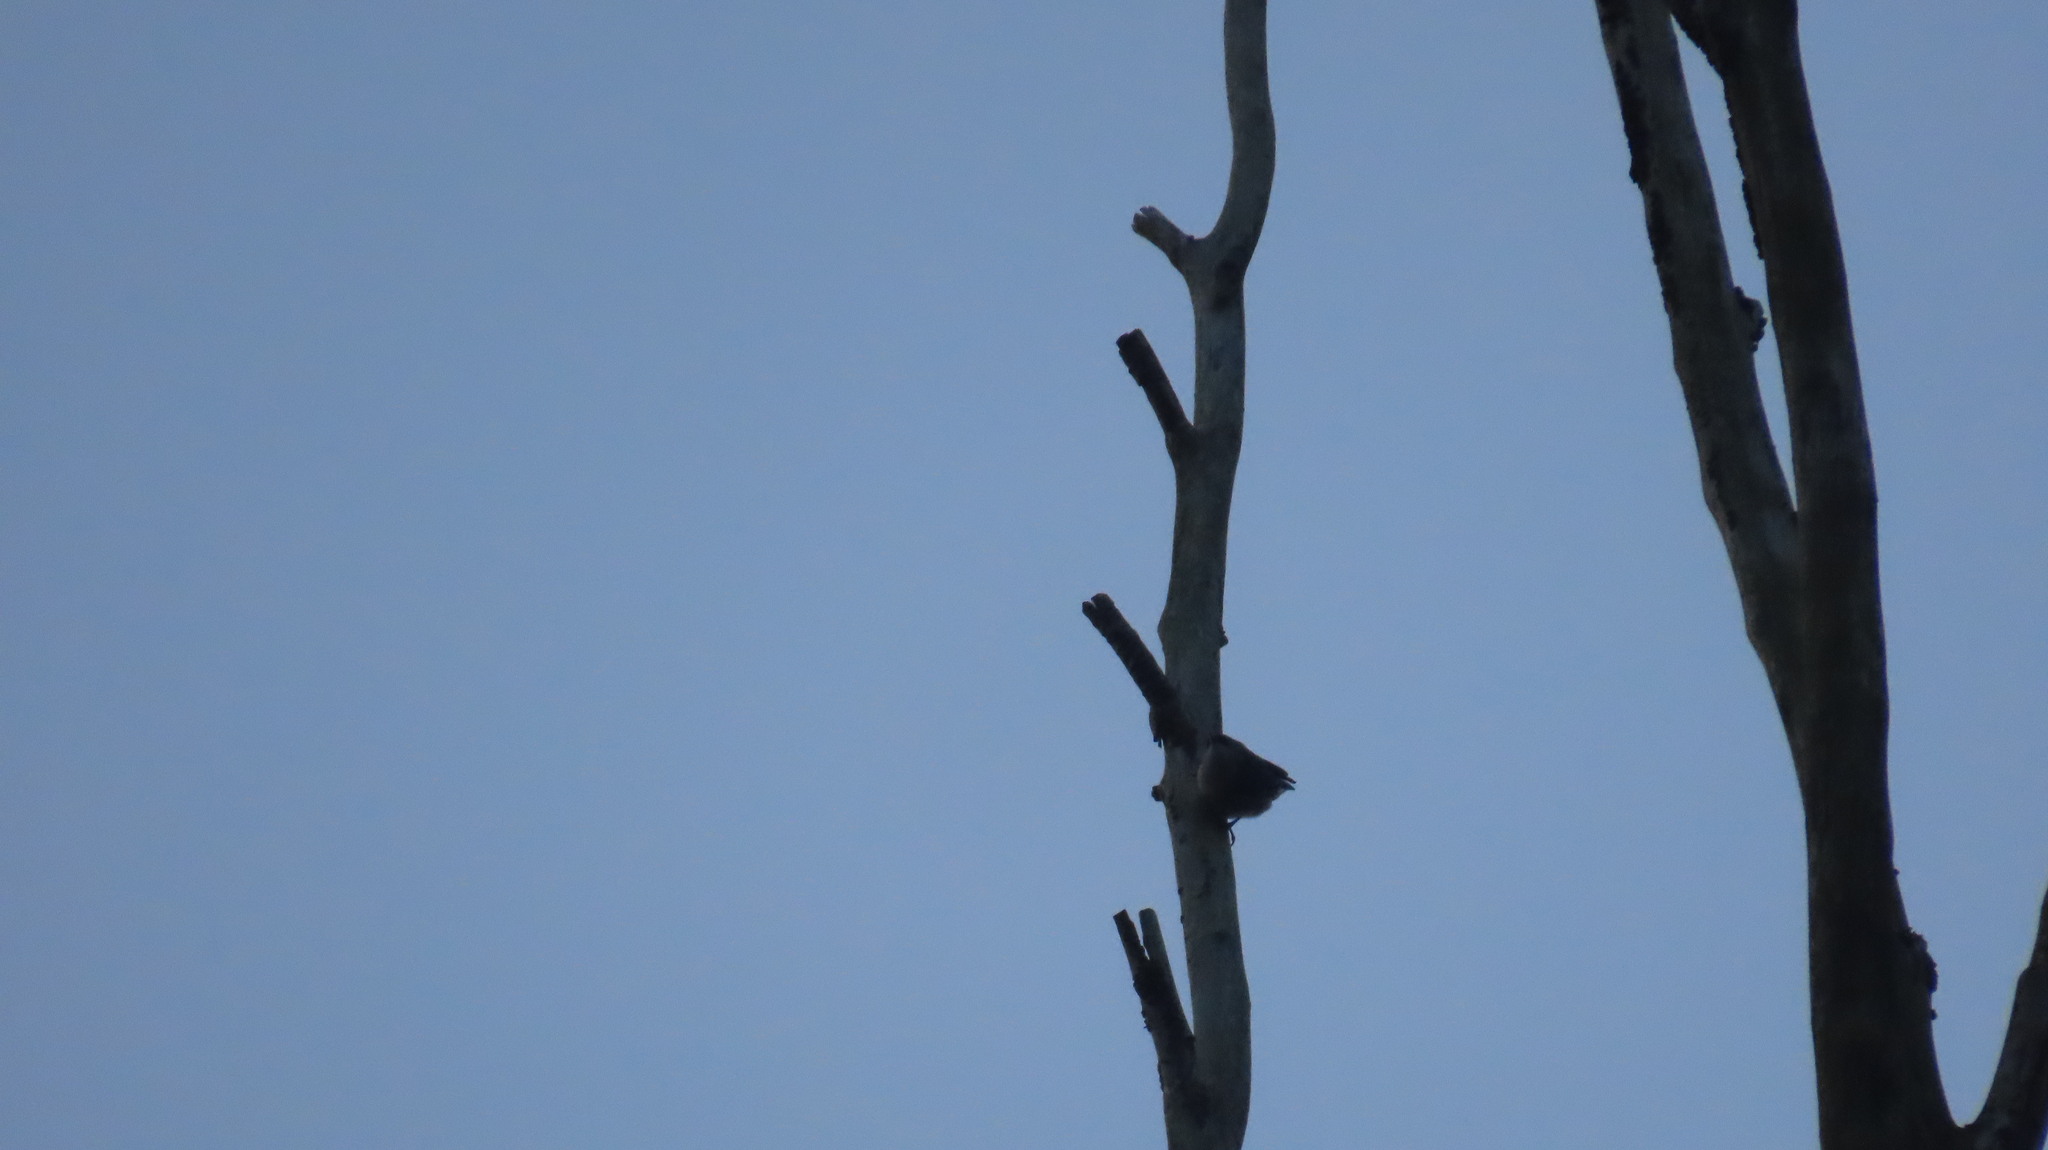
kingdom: Animalia
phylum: Chordata
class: Aves
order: Passeriformes
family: Sittidae
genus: Sitta
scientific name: Sitta frontalis
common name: Velvet-fronted nuthatch
